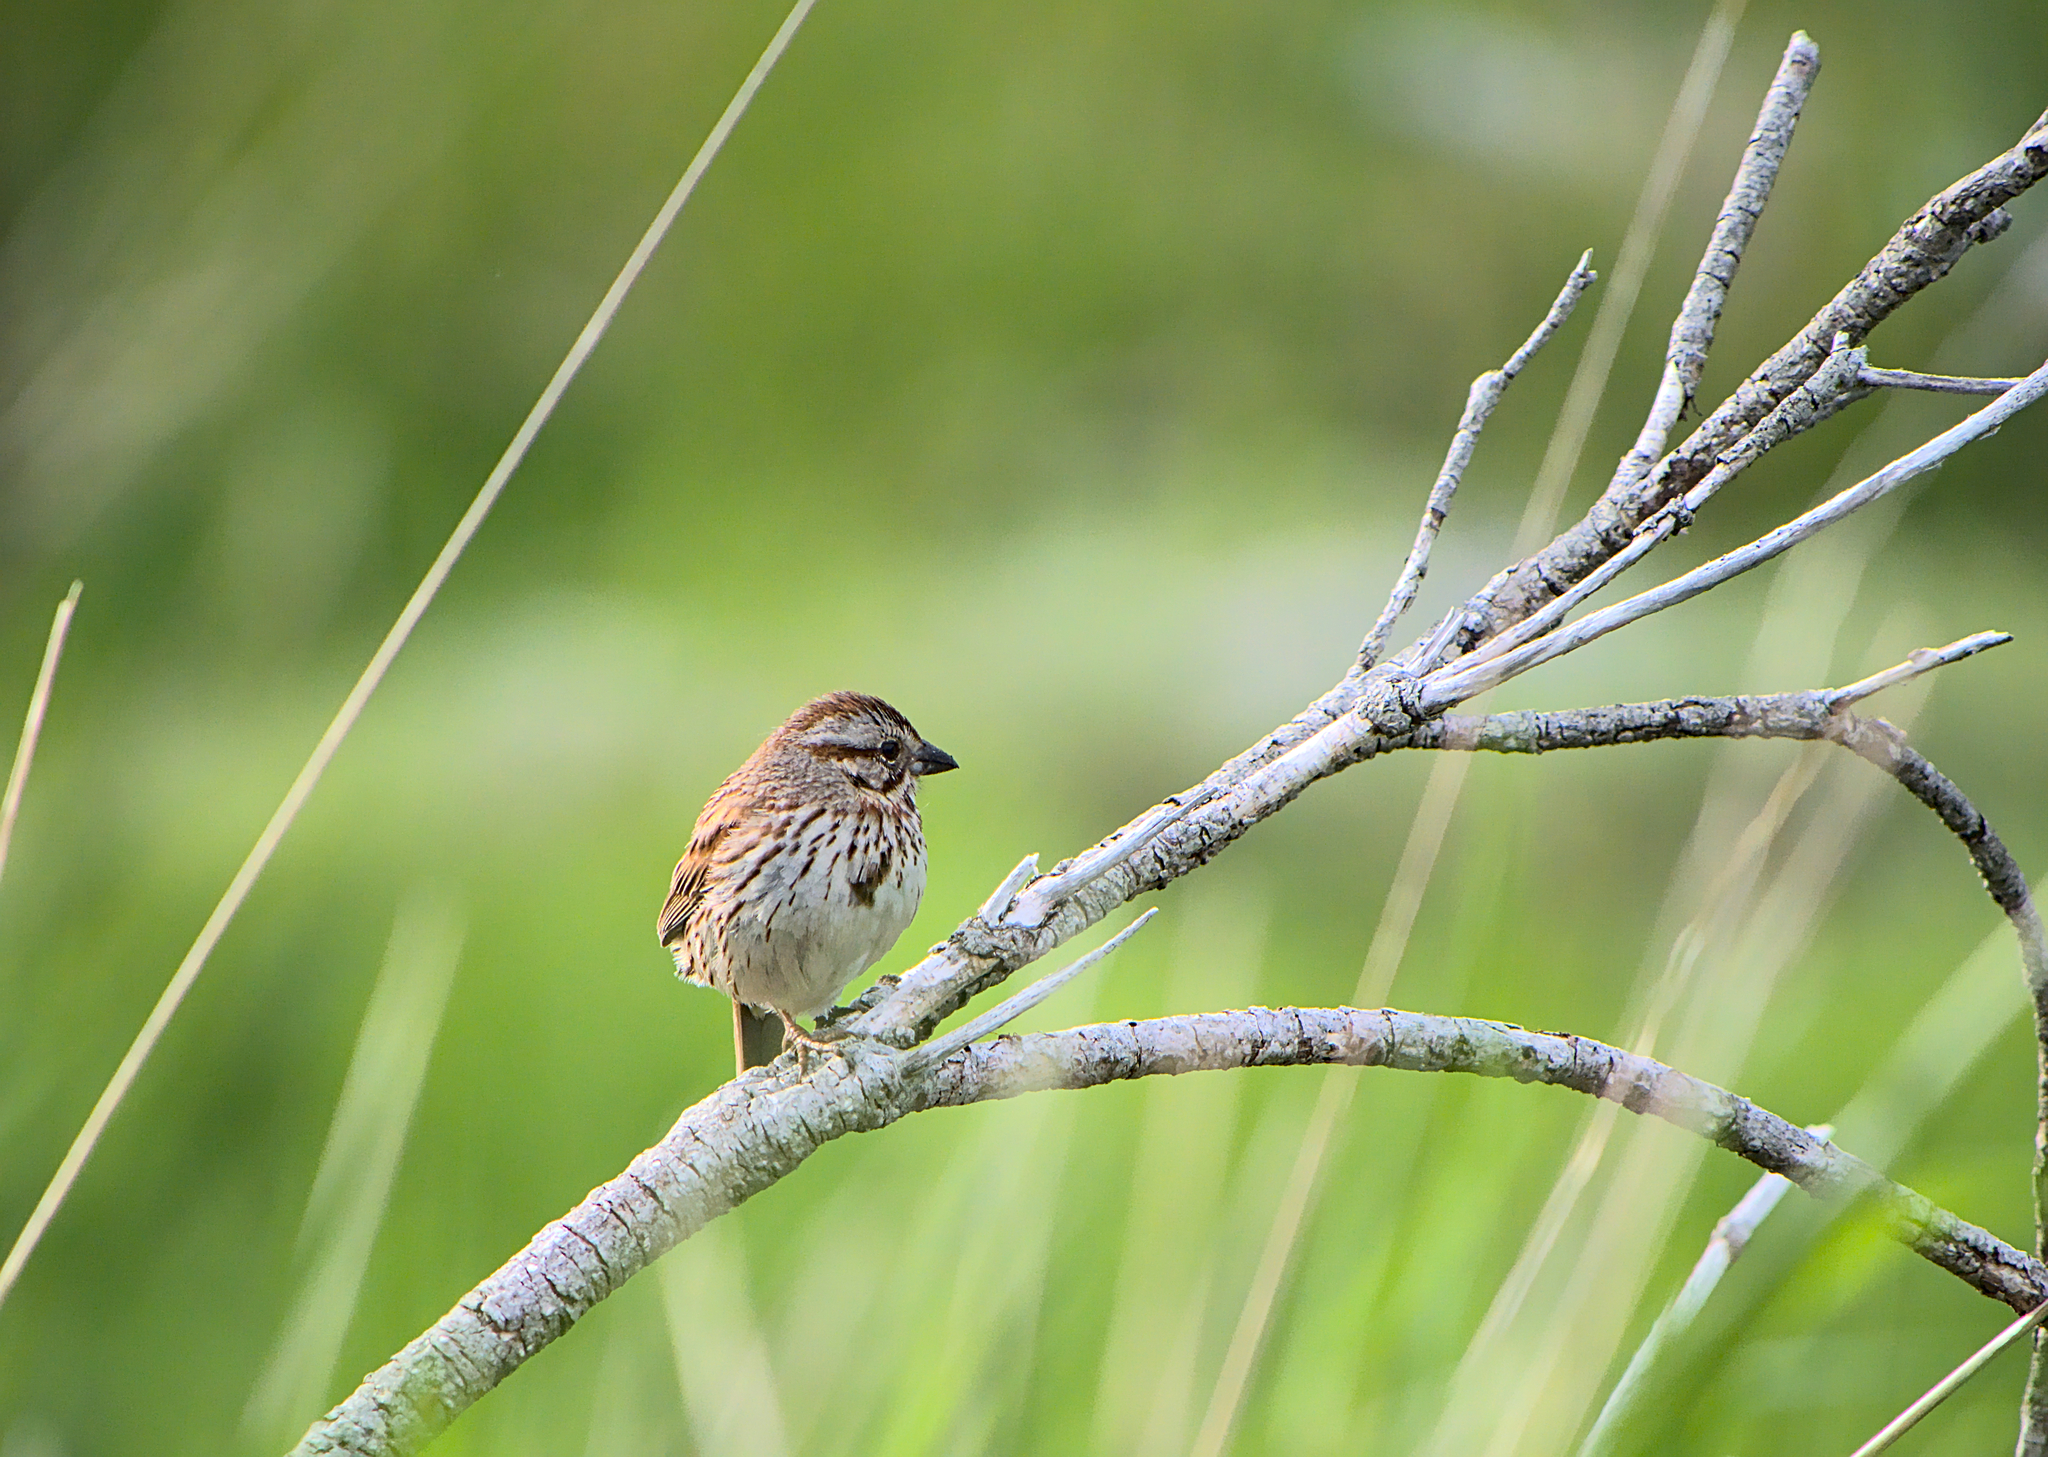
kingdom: Animalia
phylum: Chordata
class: Aves
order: Passeriformes
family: Passerellidae
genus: Melospiza
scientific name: Melospiza melodia
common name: Song sparrow
